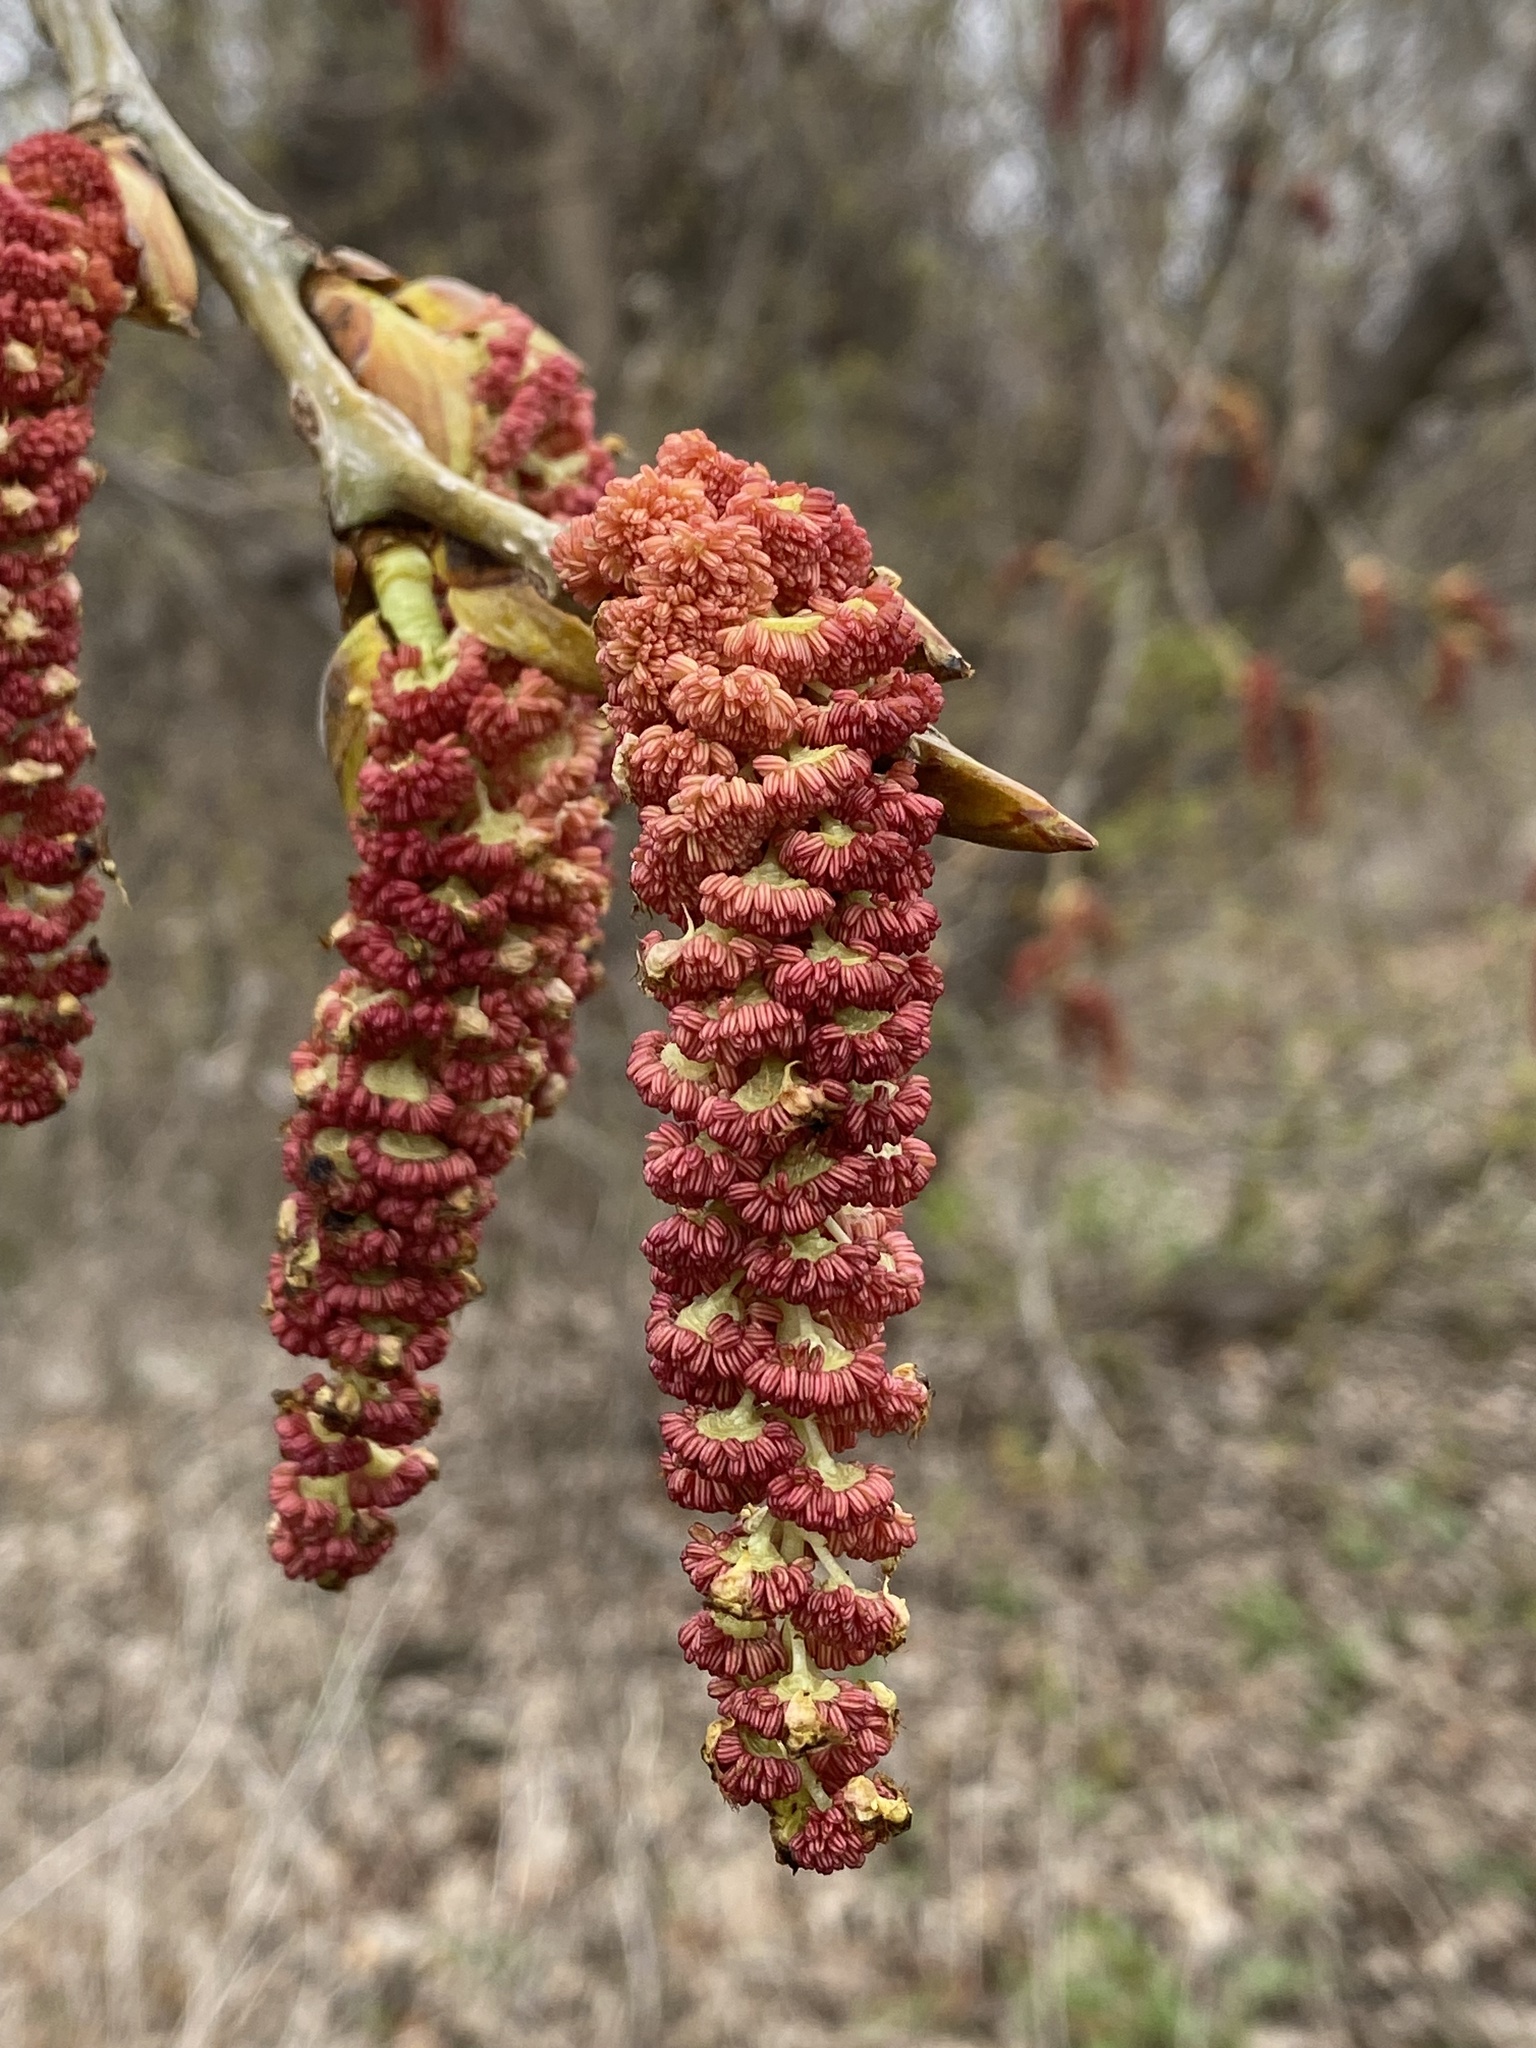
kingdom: Plantae
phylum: Tracheophyta
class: Magnoliopsida
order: Malpighiales
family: Salicaceae
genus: Populus
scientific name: Populus deltoides
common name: Eastern cottonwood
